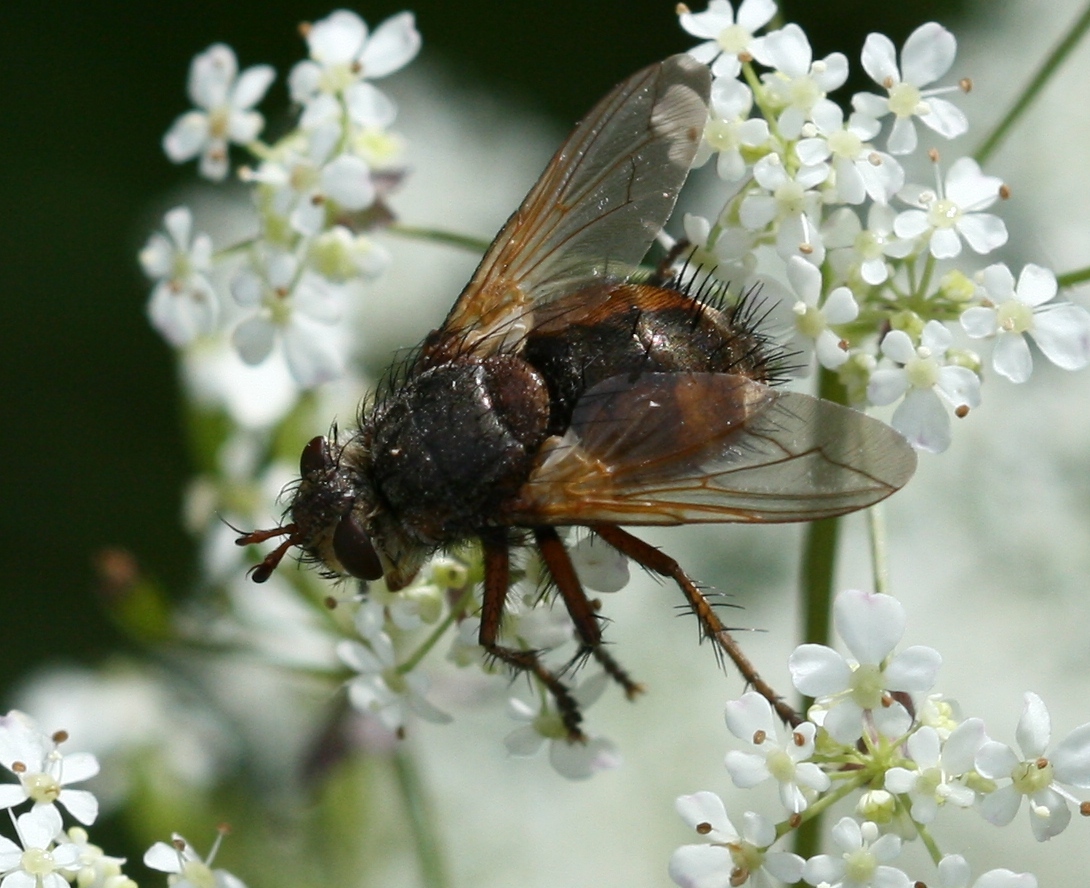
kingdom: Animalia
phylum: Arthropoda
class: Insecta
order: Diptera
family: Tachinidae
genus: Tachina
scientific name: Tachina fera
